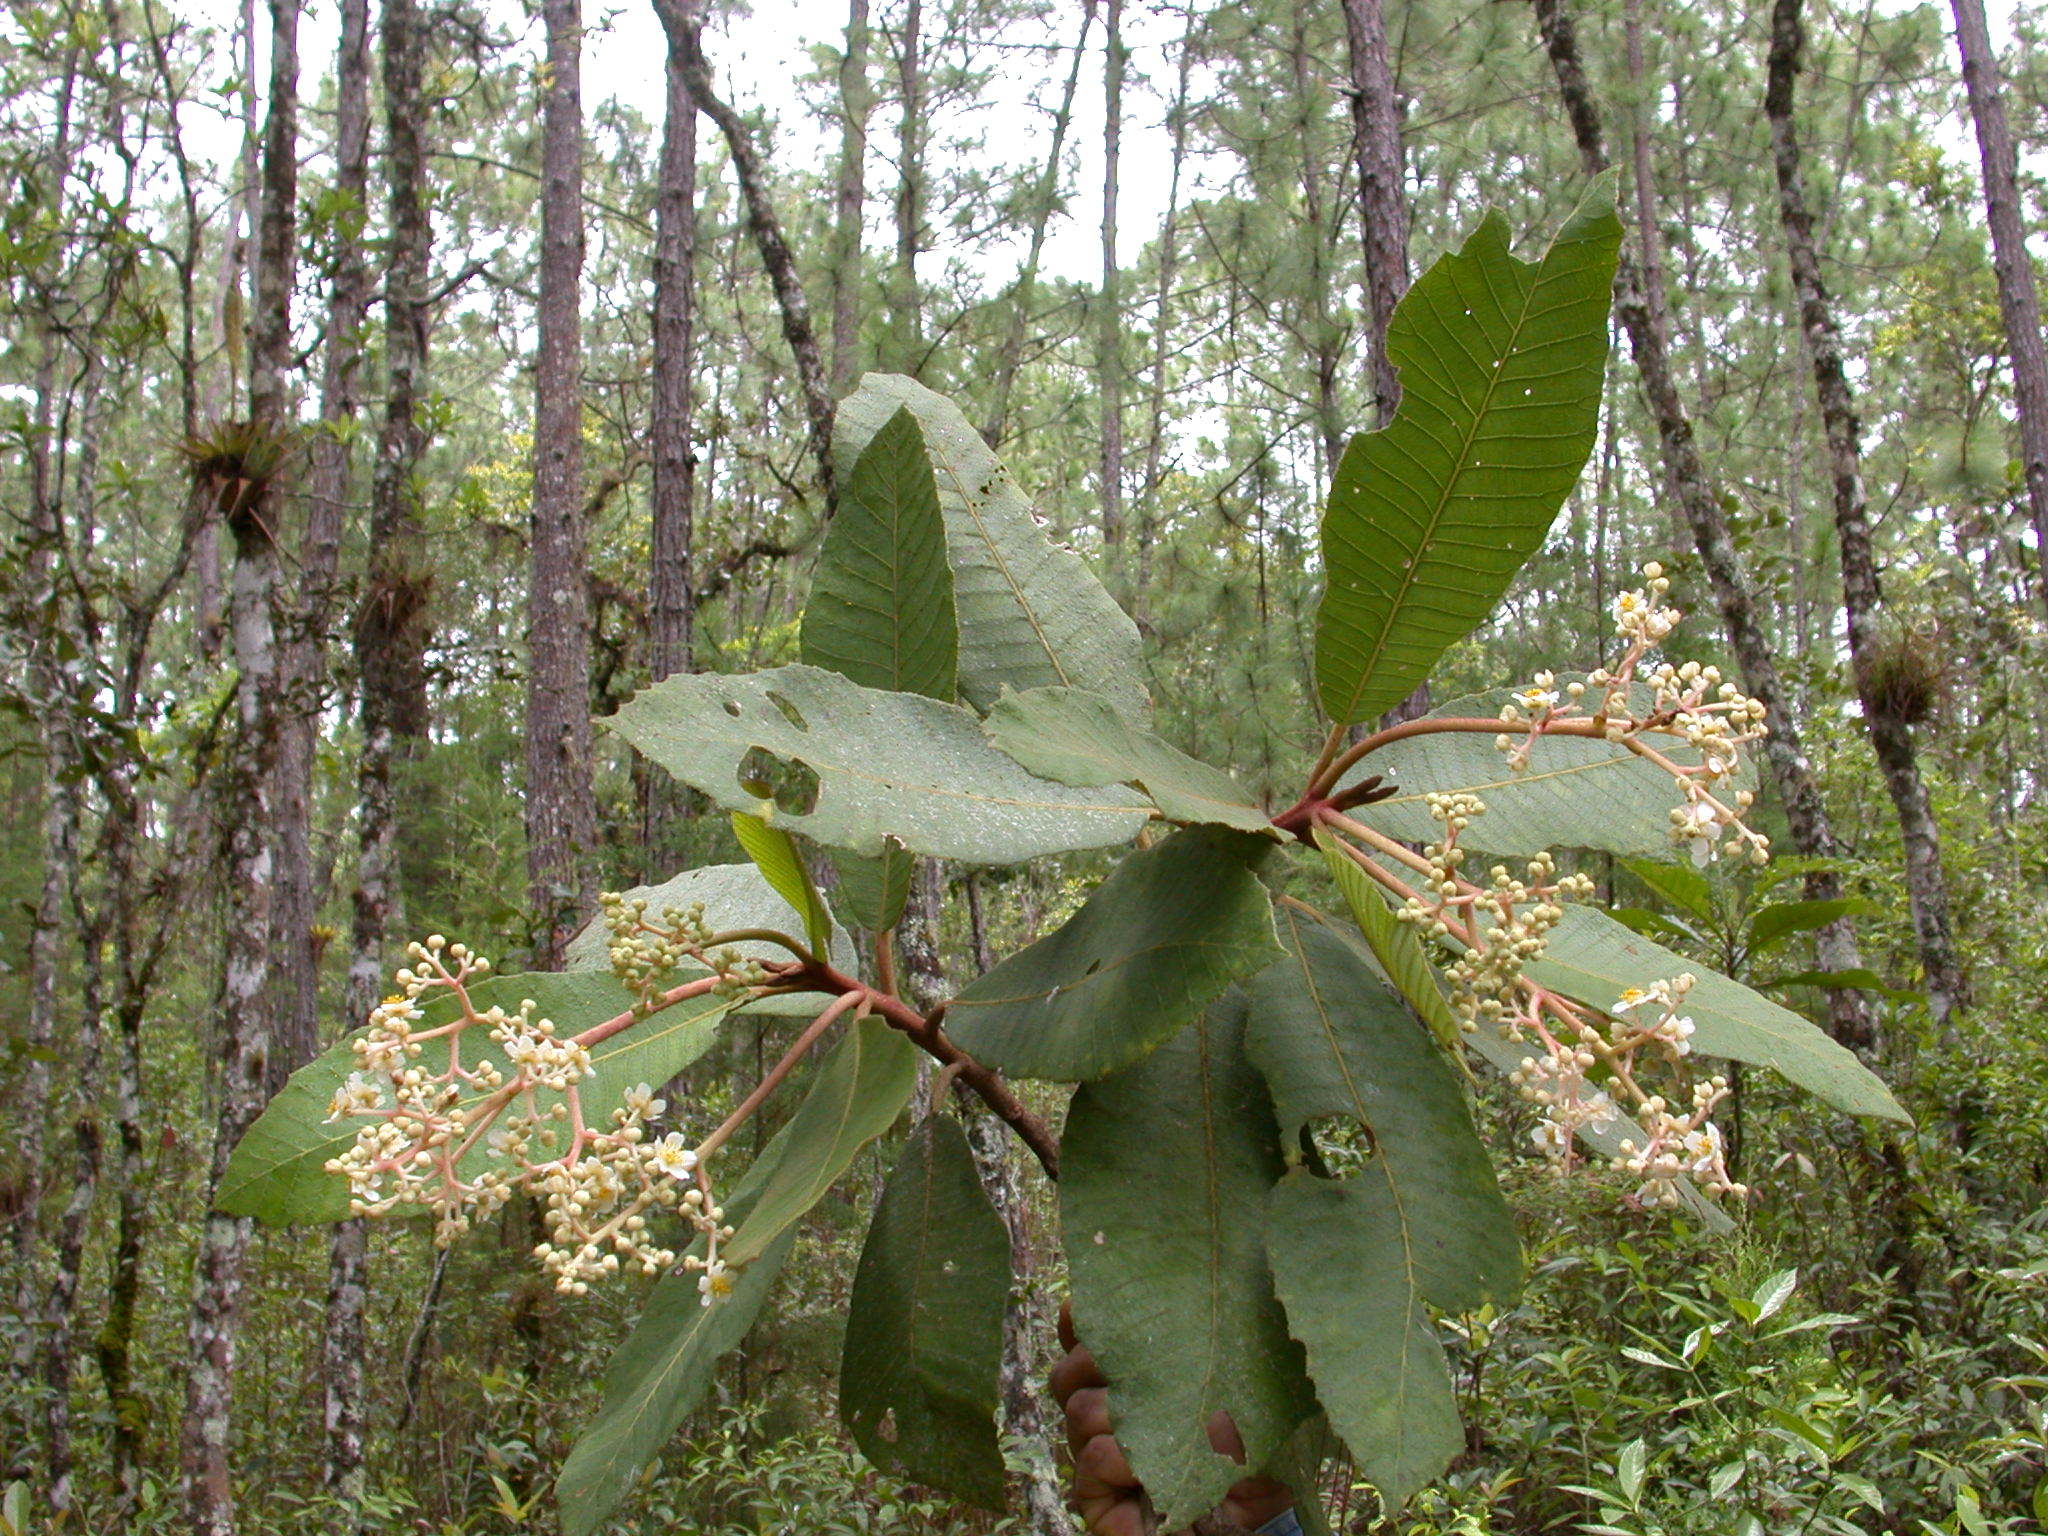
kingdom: Plantae
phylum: Tracheophyta
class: Magnoliopsida
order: Ericales
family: Actinidiaceae
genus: Saurauia
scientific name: Saurauia madrensis
